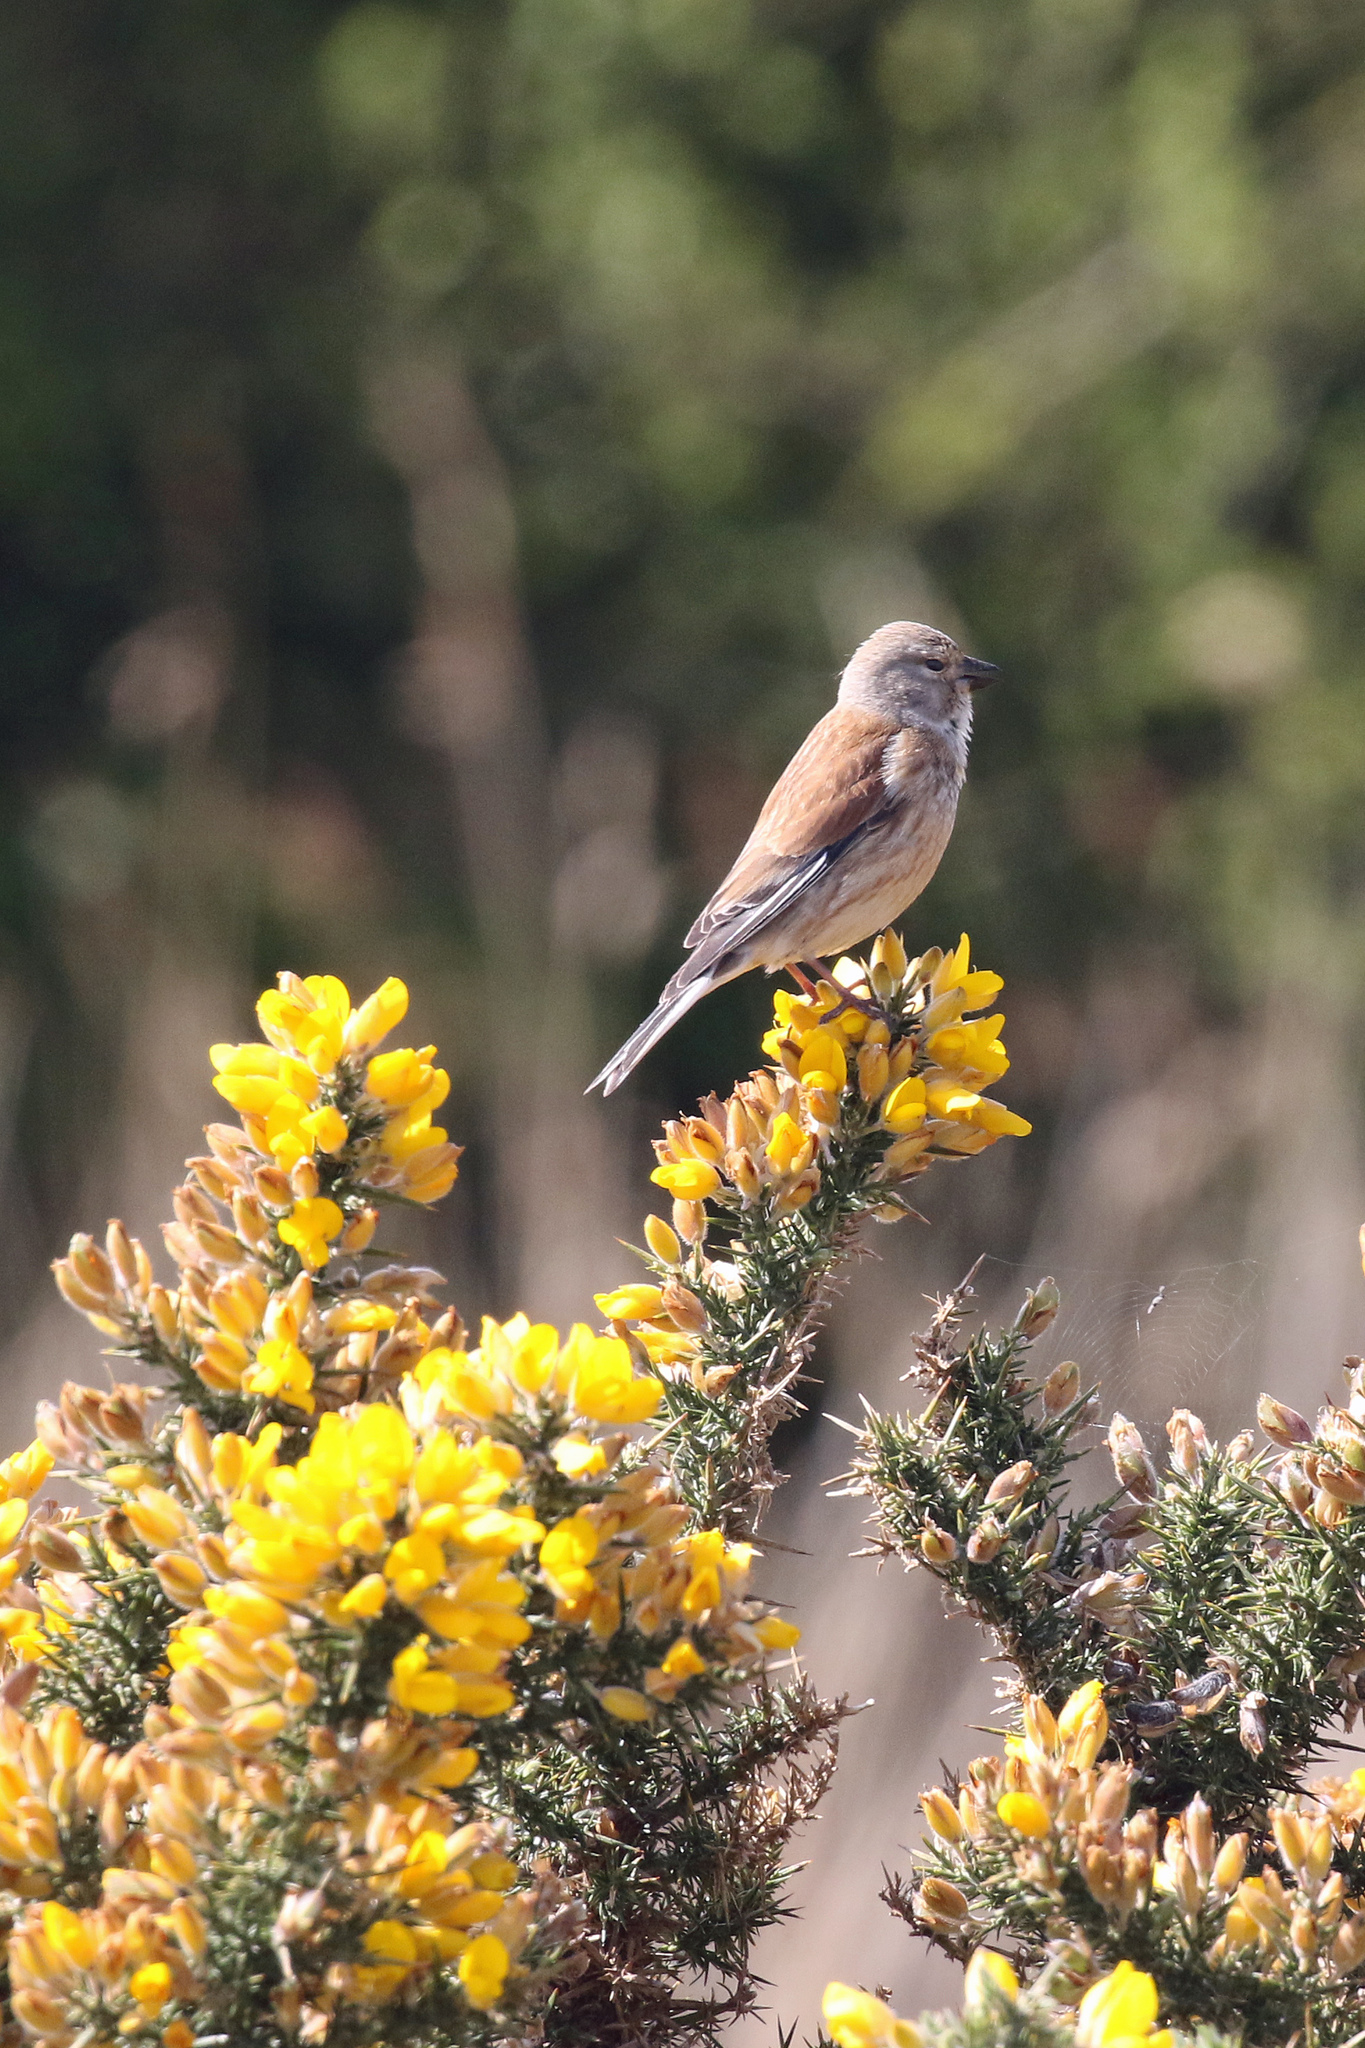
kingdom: Animalia
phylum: Chordata
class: Aves
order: Passeriformes
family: Fringillidae
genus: Linaria
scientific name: Linaria cannabina
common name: Common linnet
